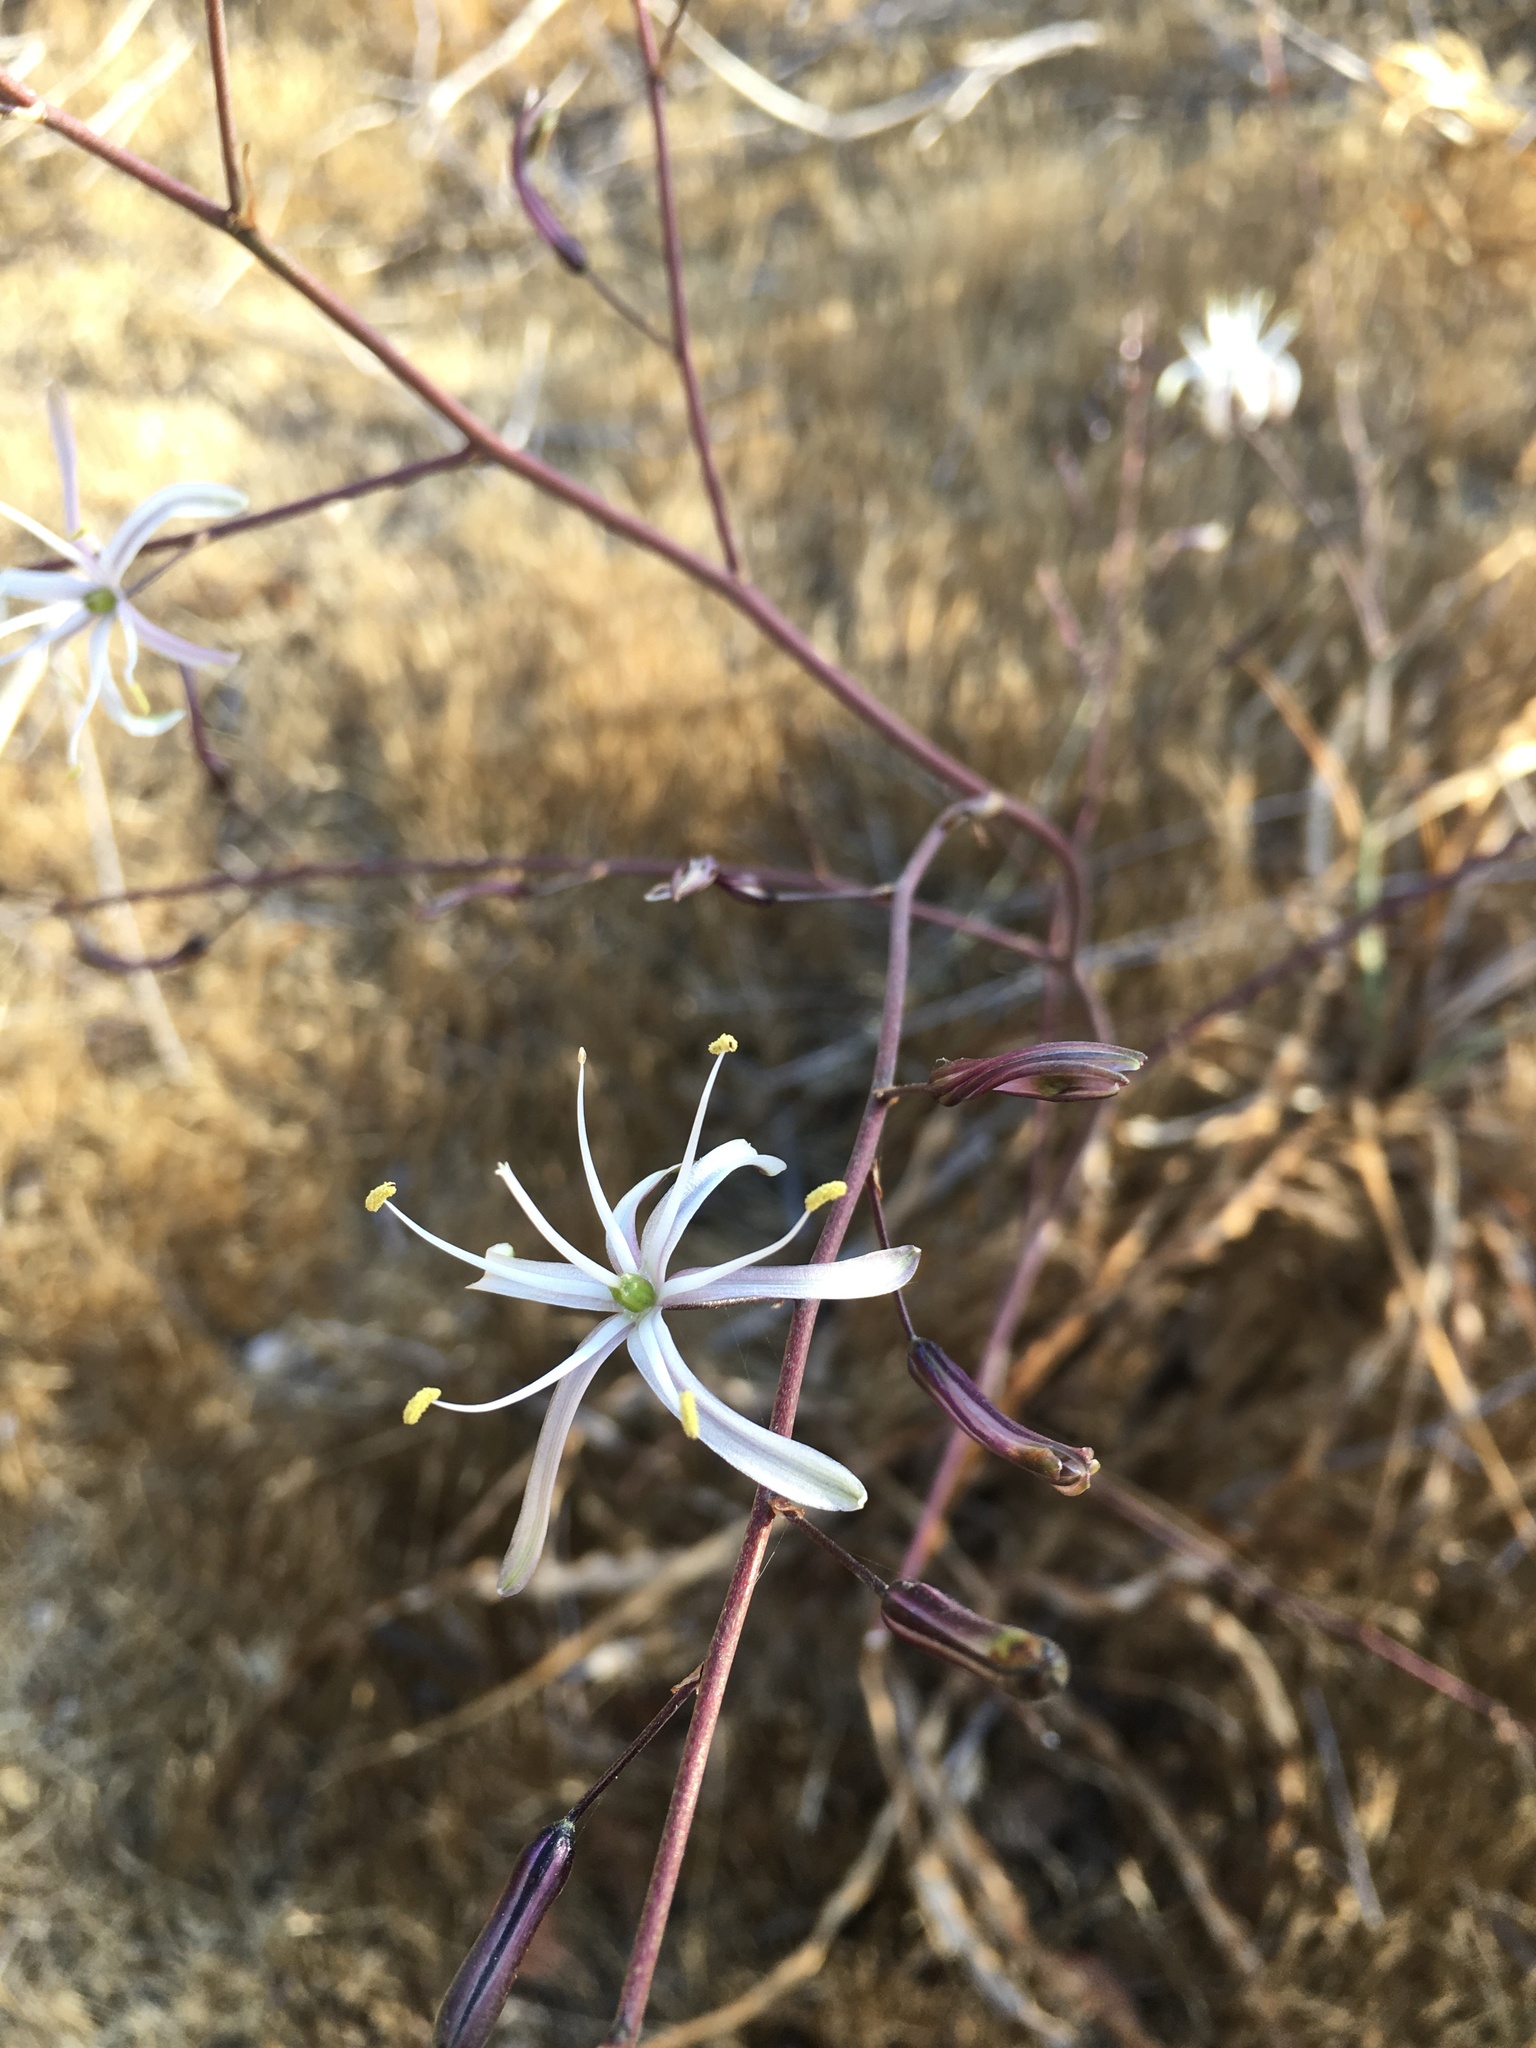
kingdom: Plantae
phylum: Tracheophyta
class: Liliopsida
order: Asparagales
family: Asparagaceae
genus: Chlorogalum
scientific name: Chlorogalum pomeridianum
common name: Amole
